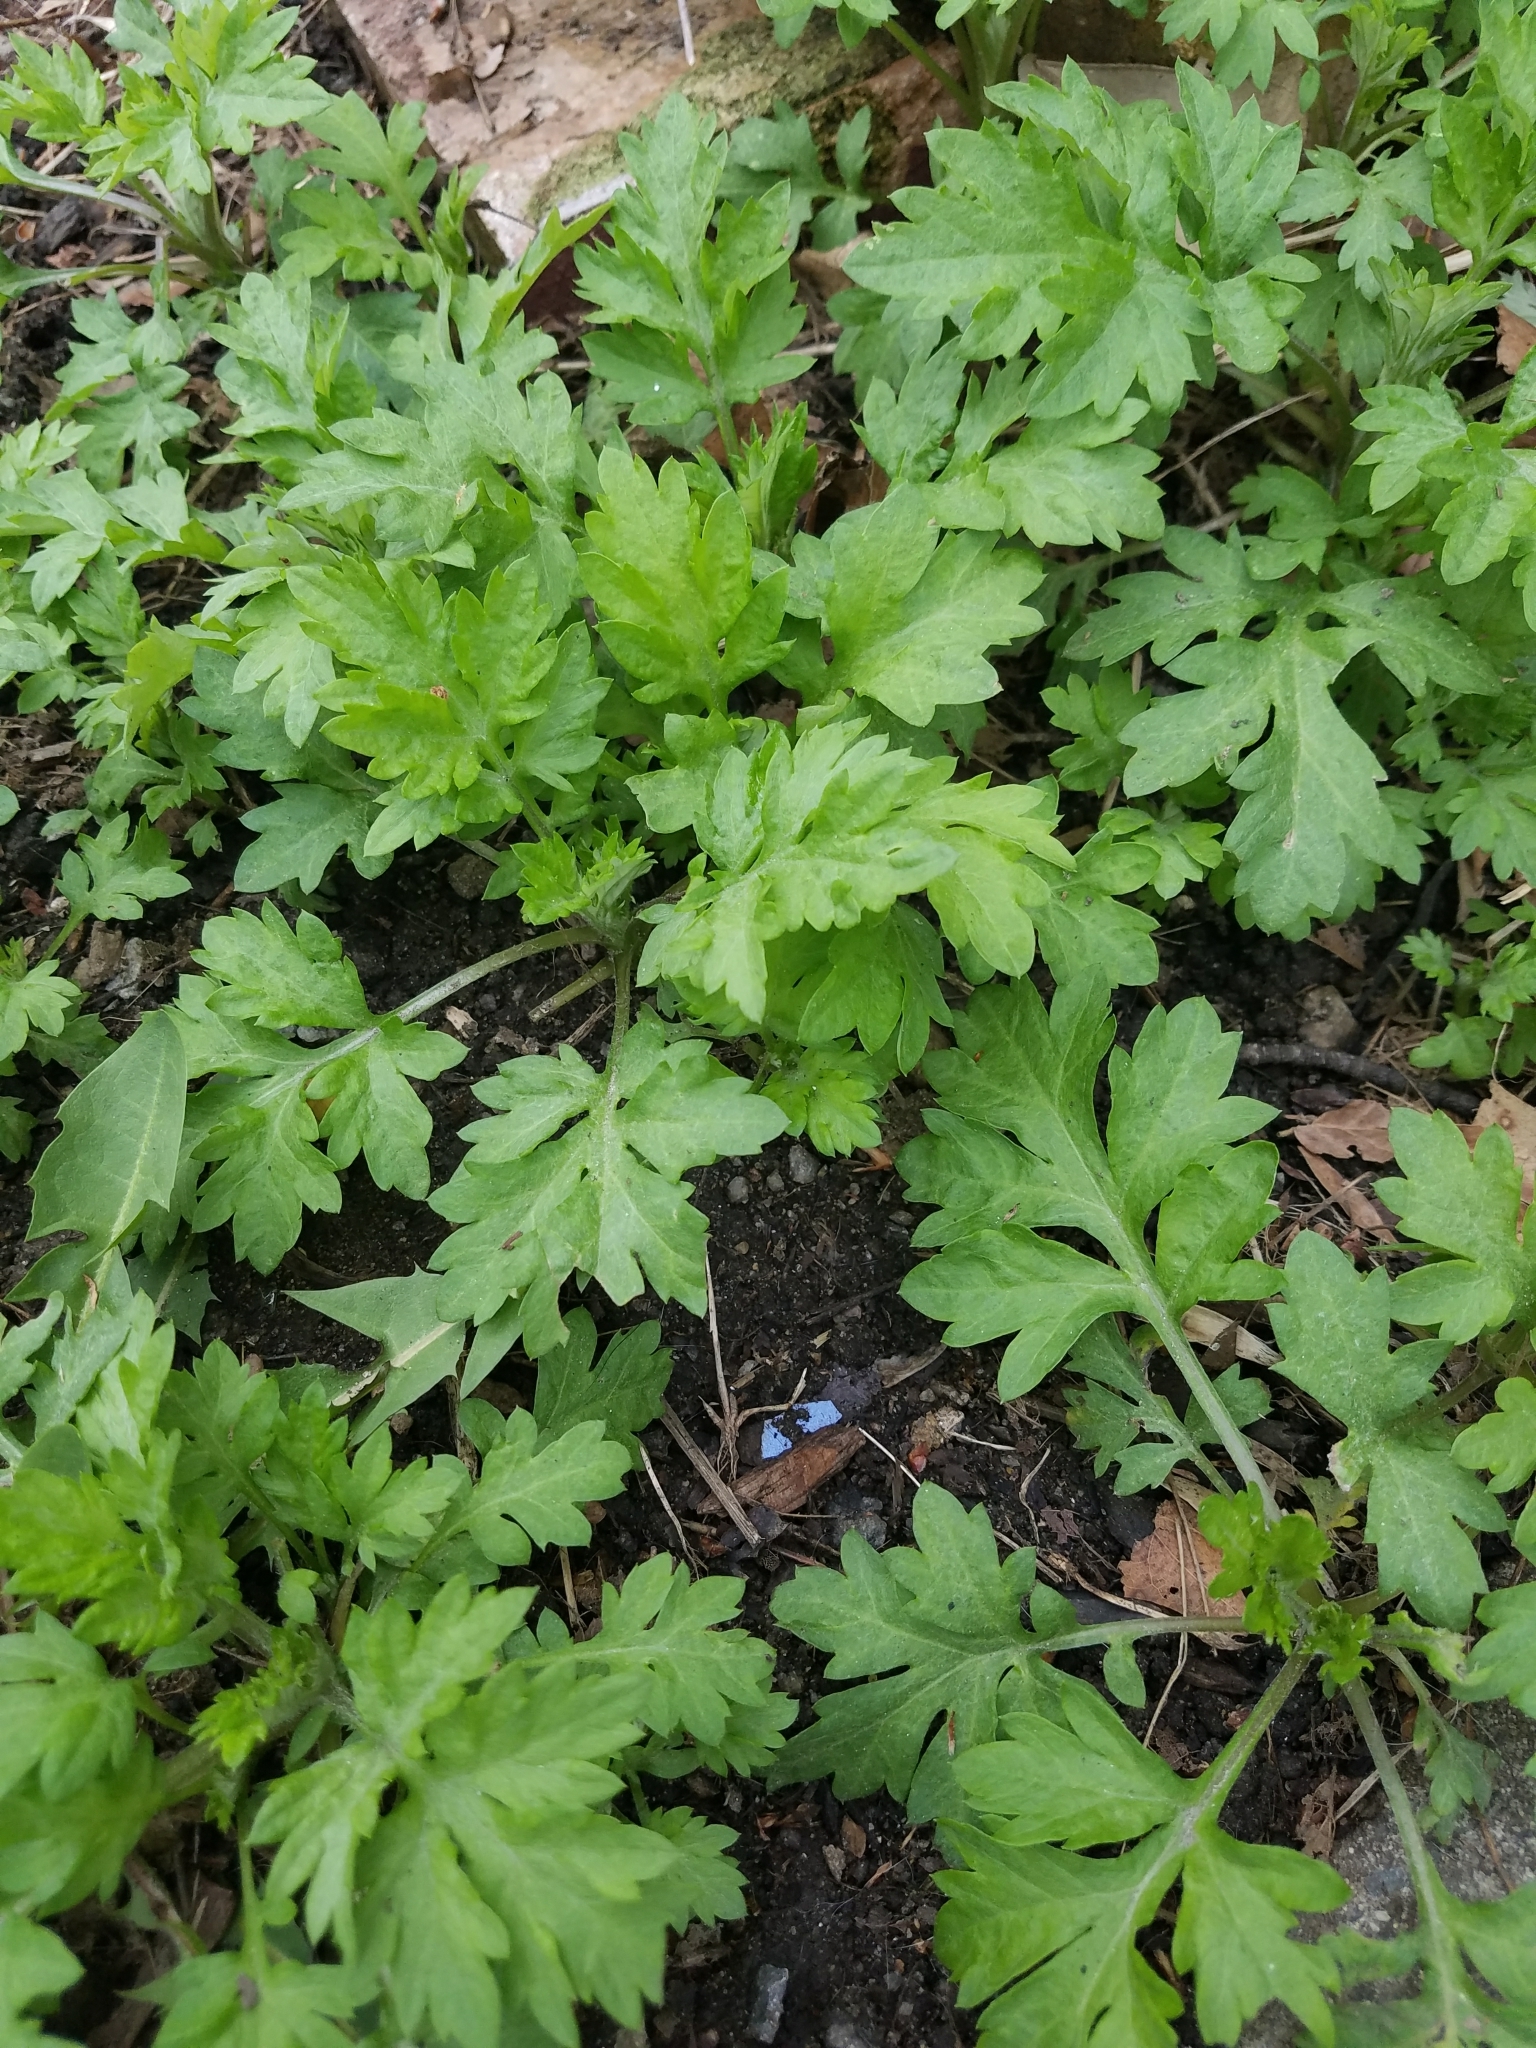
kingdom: Plantae
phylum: Tracheophyta
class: Magnoliopsida
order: Asterales
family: Asteraceae
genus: Artemisia
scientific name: Artemisia vulgaris
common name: Mugwort
